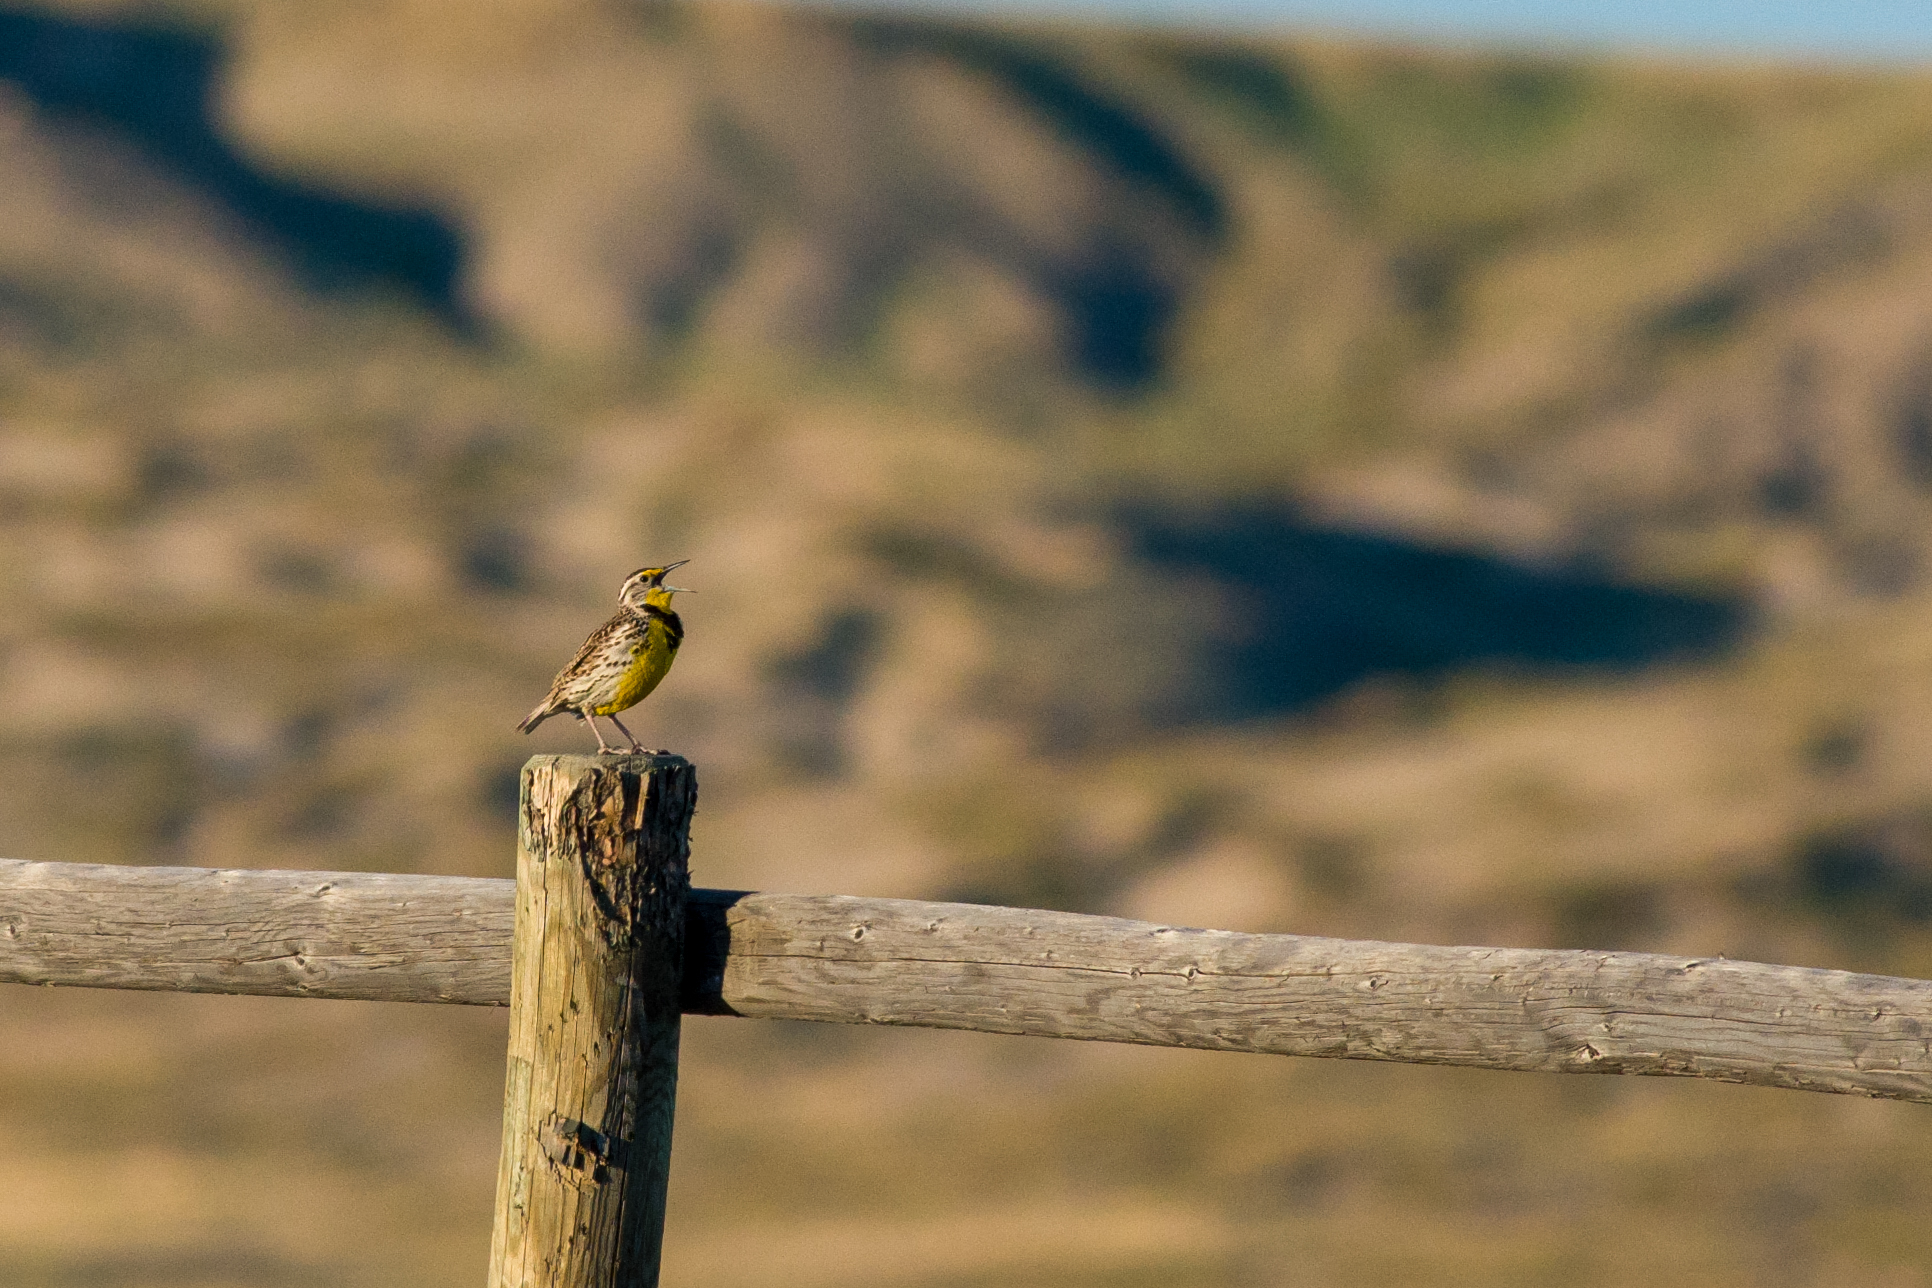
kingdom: Animalia
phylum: Chordata
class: Aves
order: Passeriformes
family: Icteridae
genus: Sturnella
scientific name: Sturnella neglecta
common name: Western meadowlark
